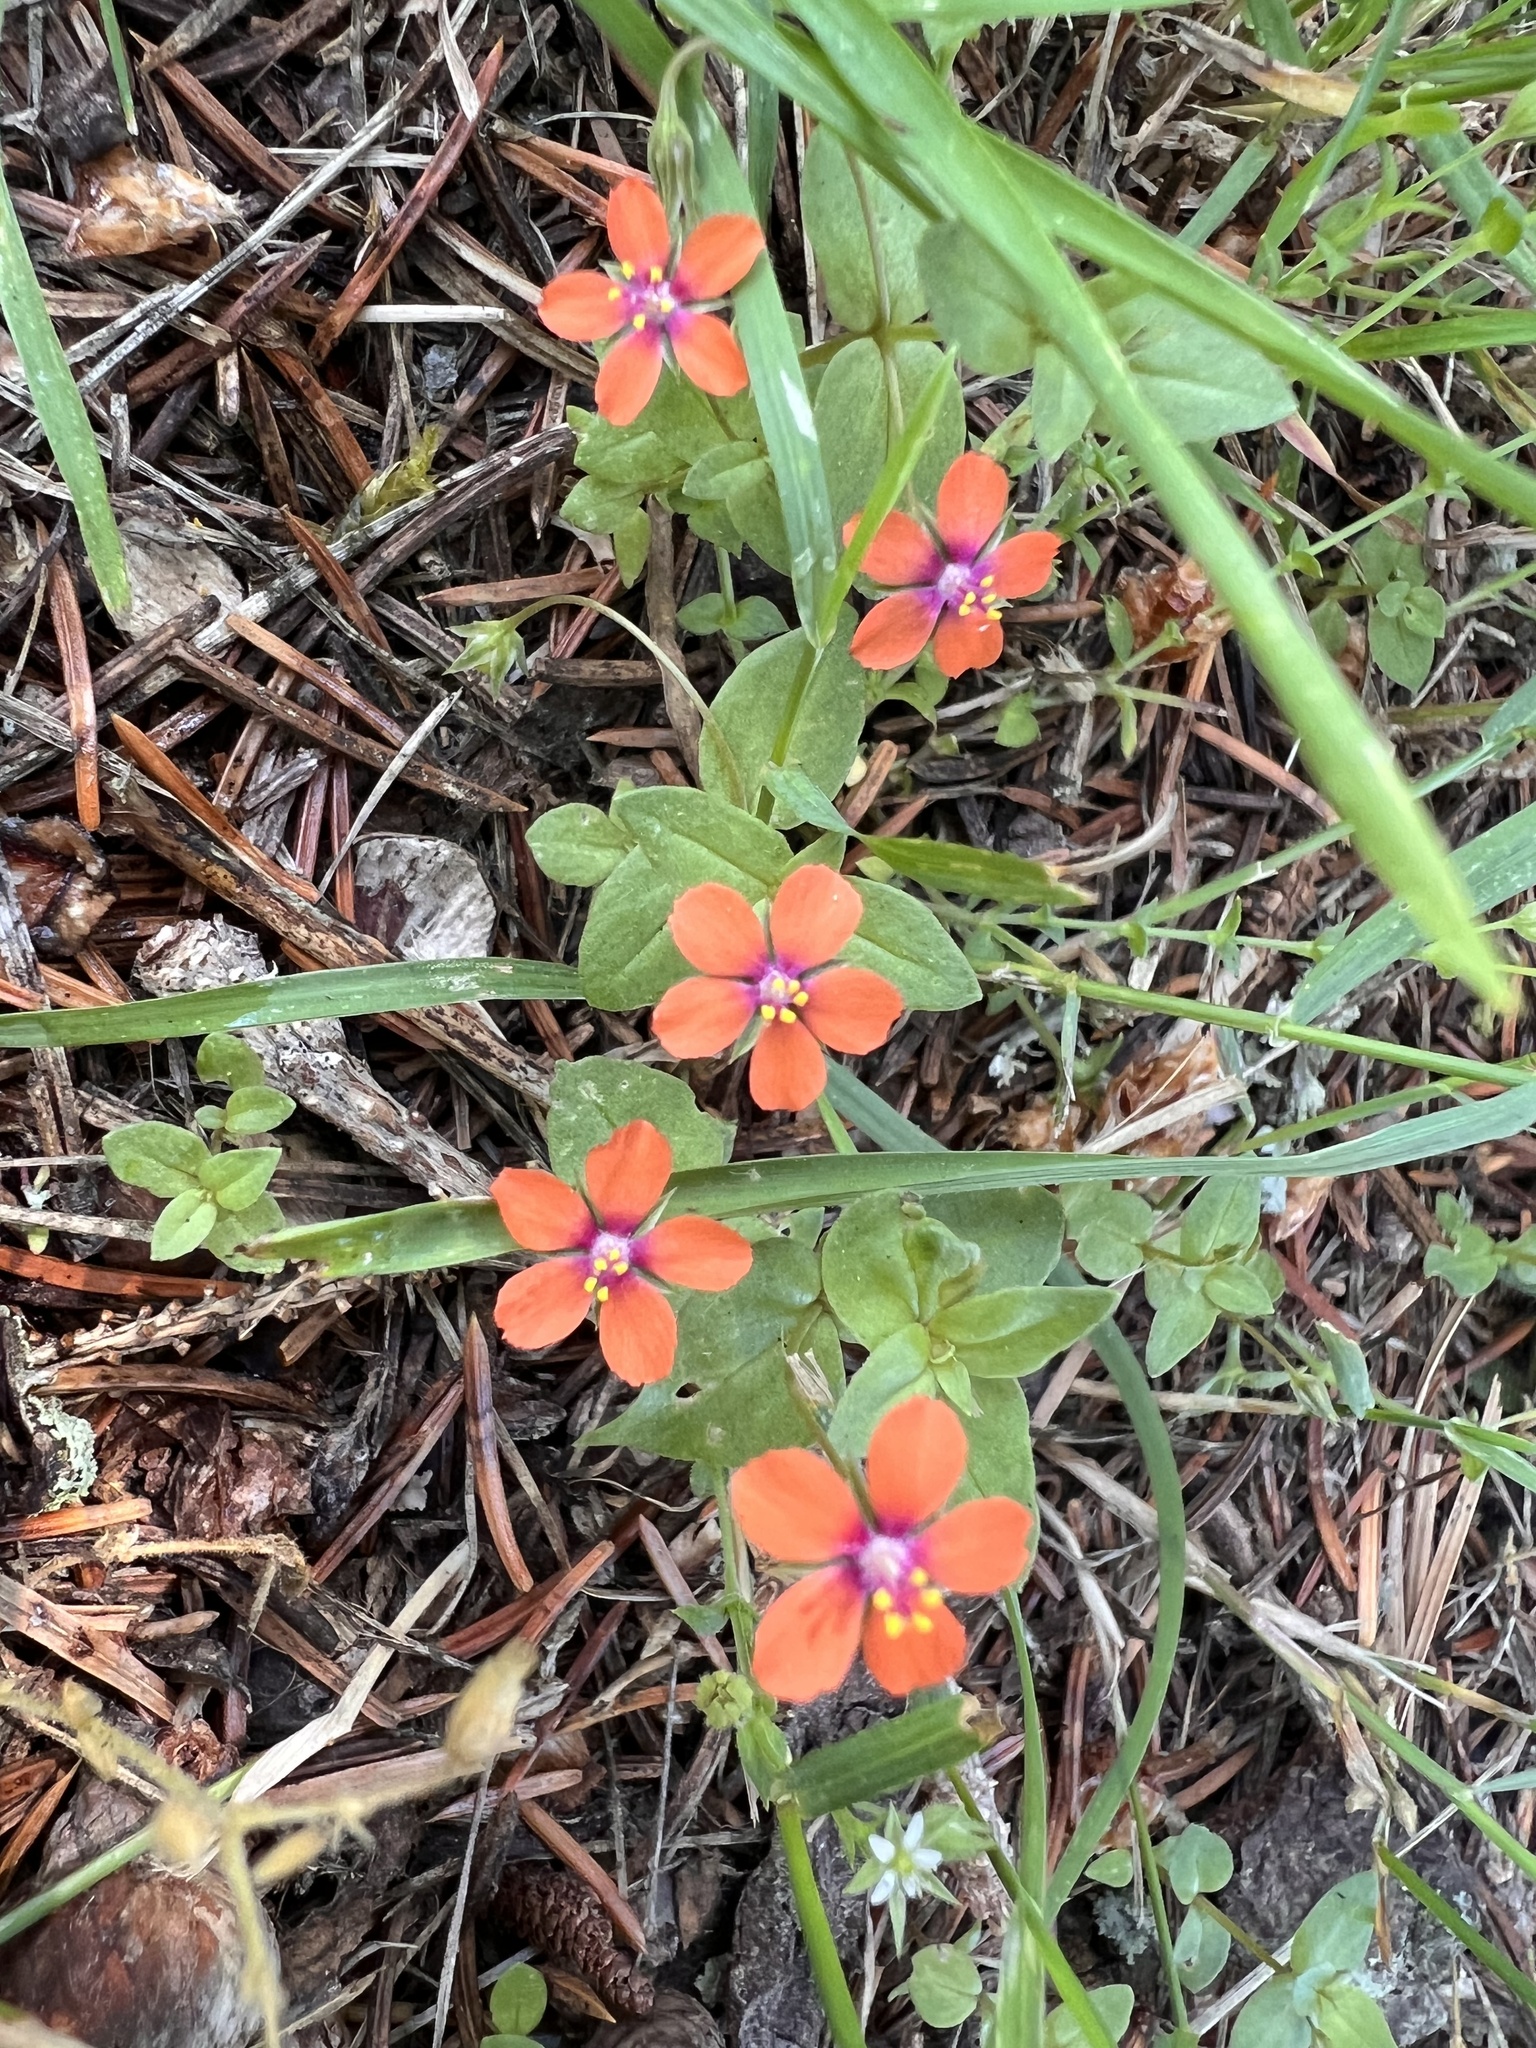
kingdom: Plantae
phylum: Tracheophyta
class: Magnoliopsida
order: Ericales
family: Primulaceae
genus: Lysimachia
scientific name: Lysimachia arvensis
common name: Scarlet pimpernel
